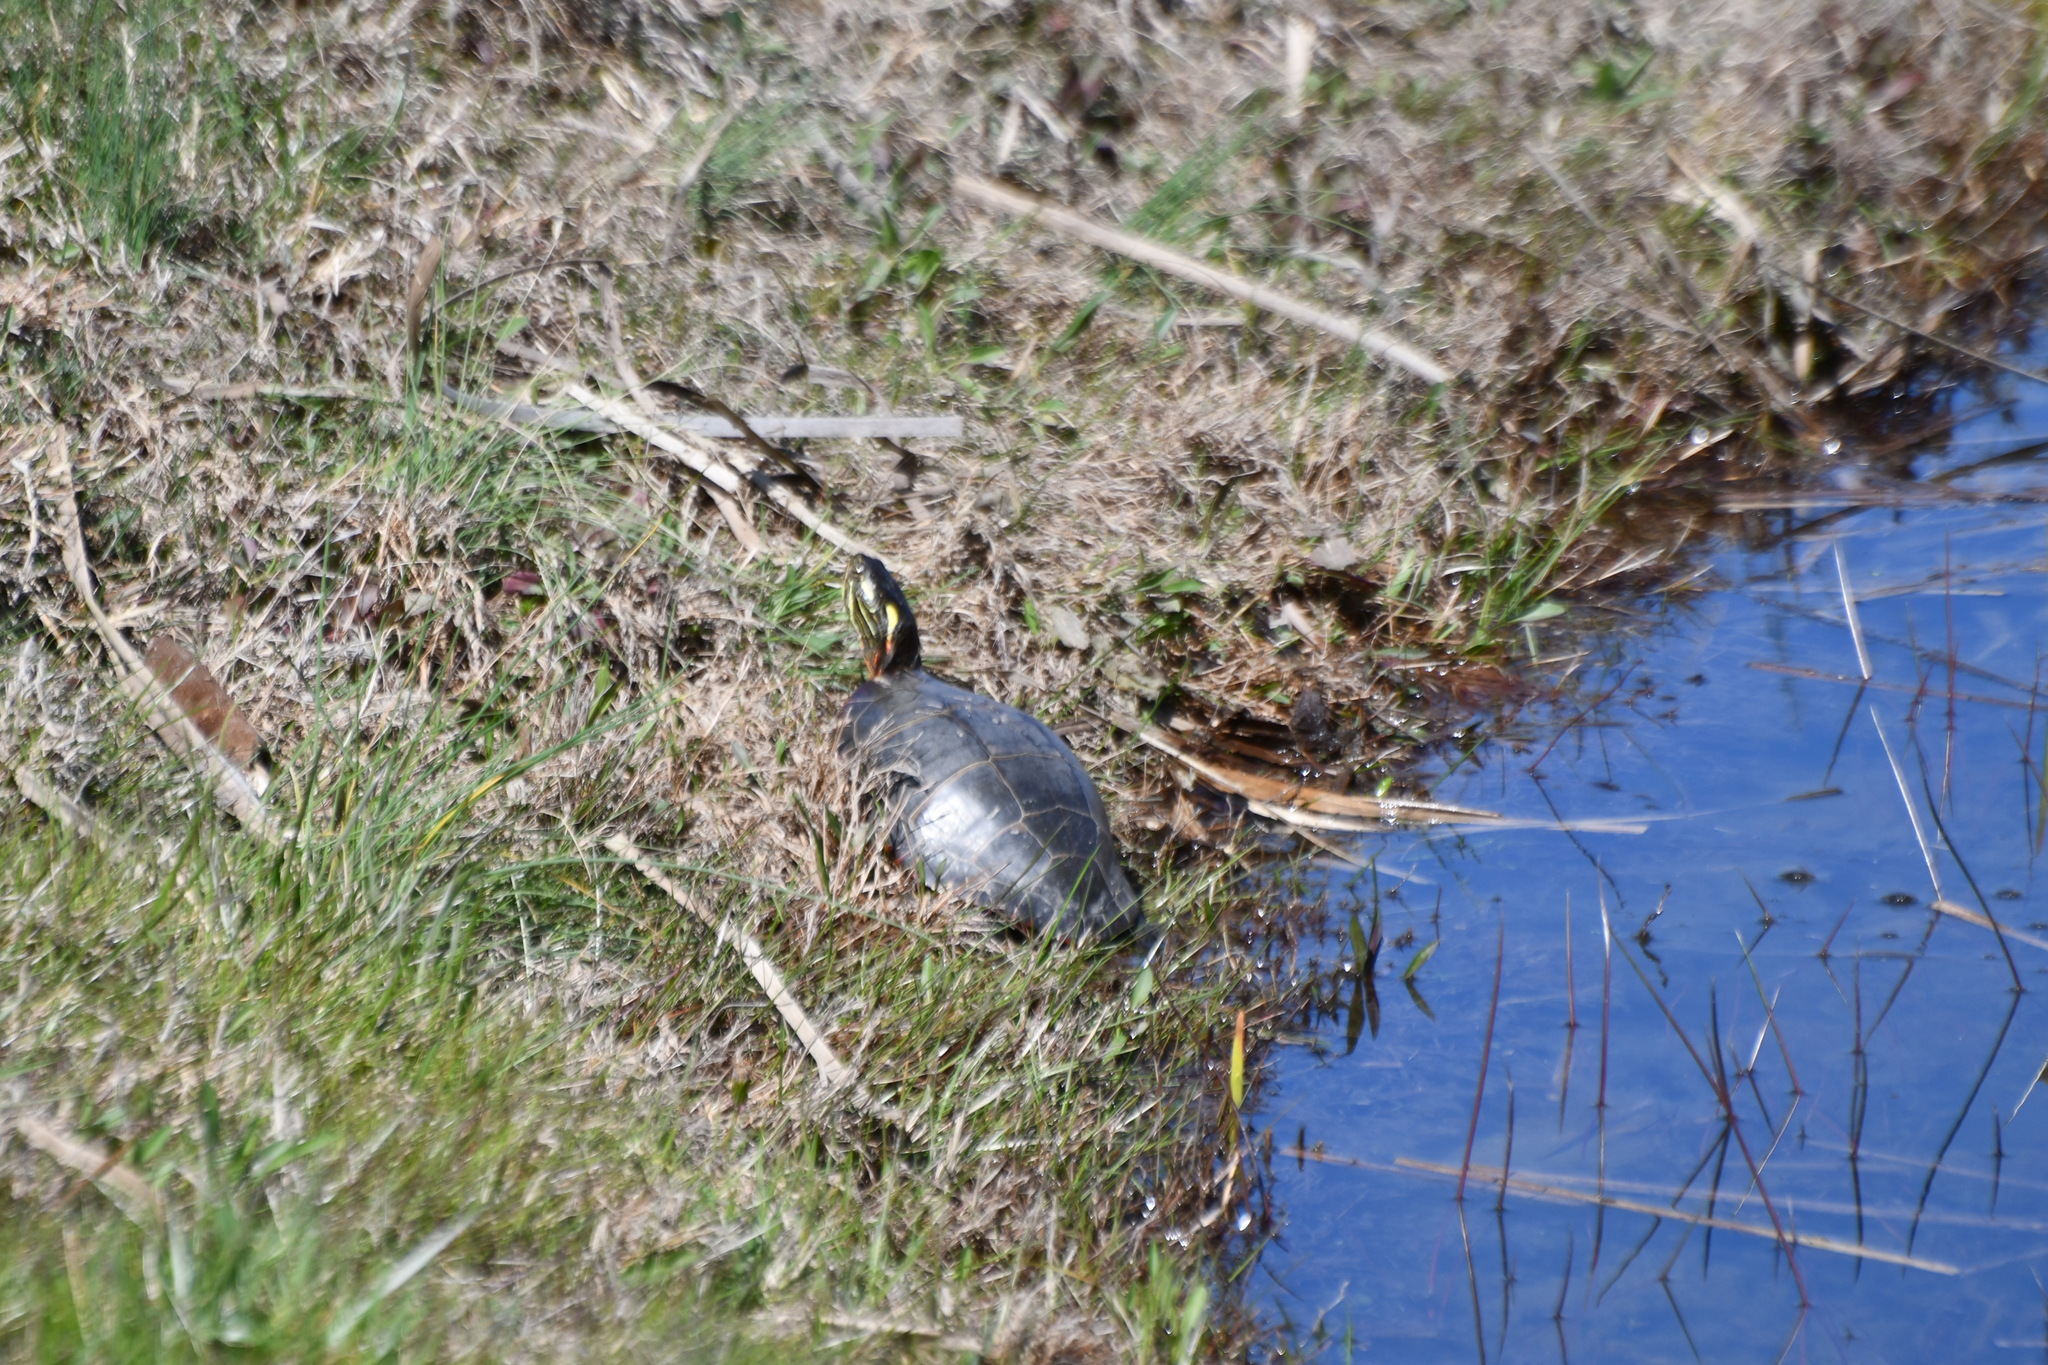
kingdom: Animalia
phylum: Chordata
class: Testudines
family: Emydidae
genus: Chrysemys
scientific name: Chrysemys picta
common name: Painted turtle
